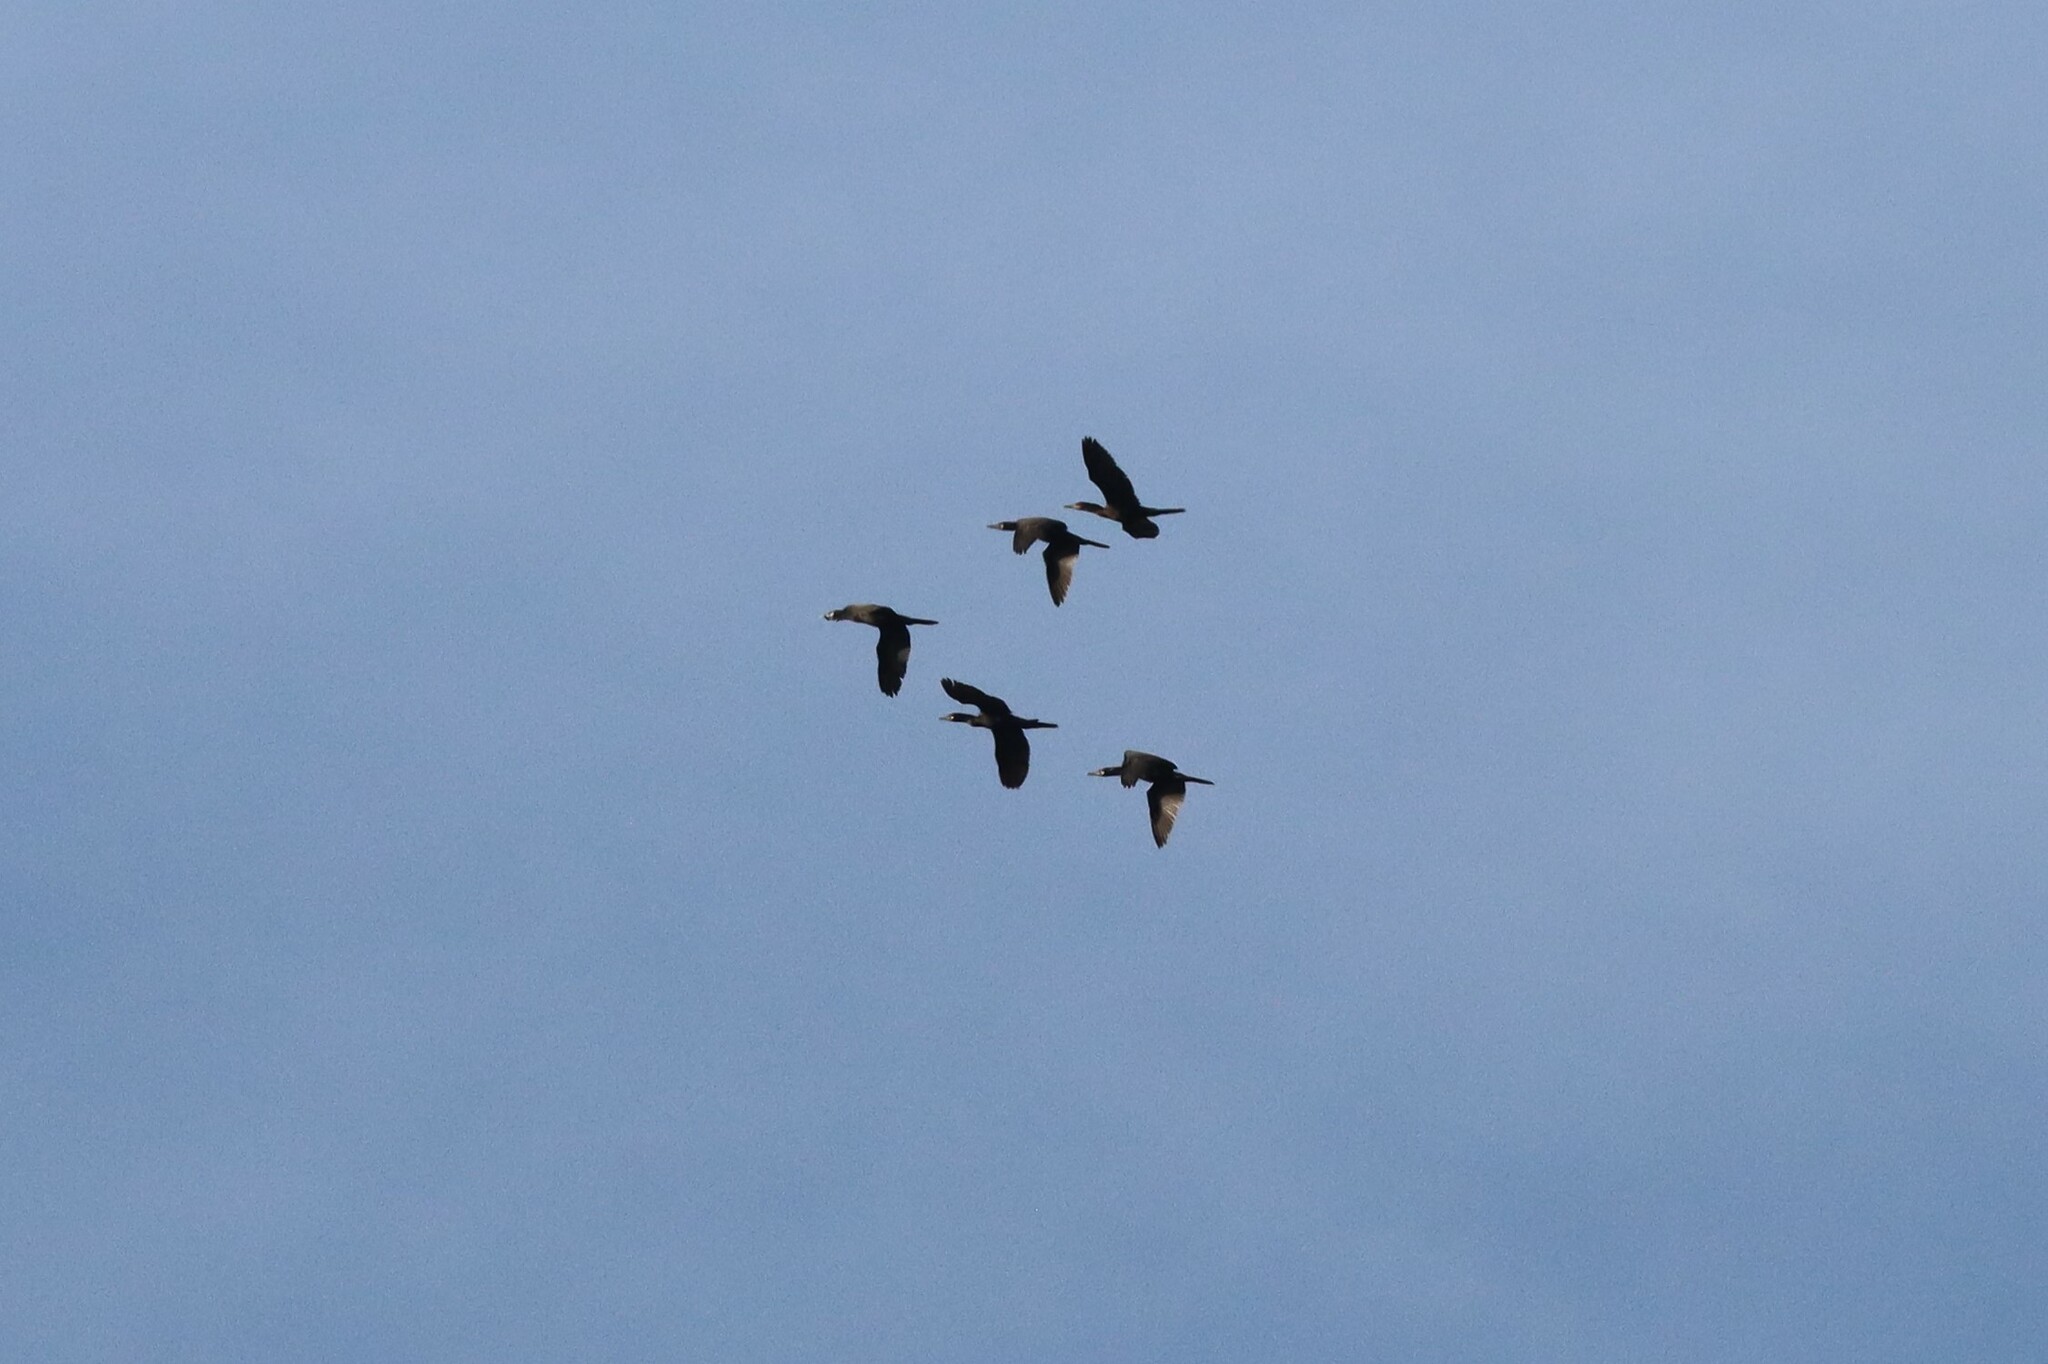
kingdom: Animalia
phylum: Chordata
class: Aves
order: Suliformes
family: Phalacrocoracidae
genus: Phalacrocorax
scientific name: Phalacrocorax brasilianus
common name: Neotropic cormorant
